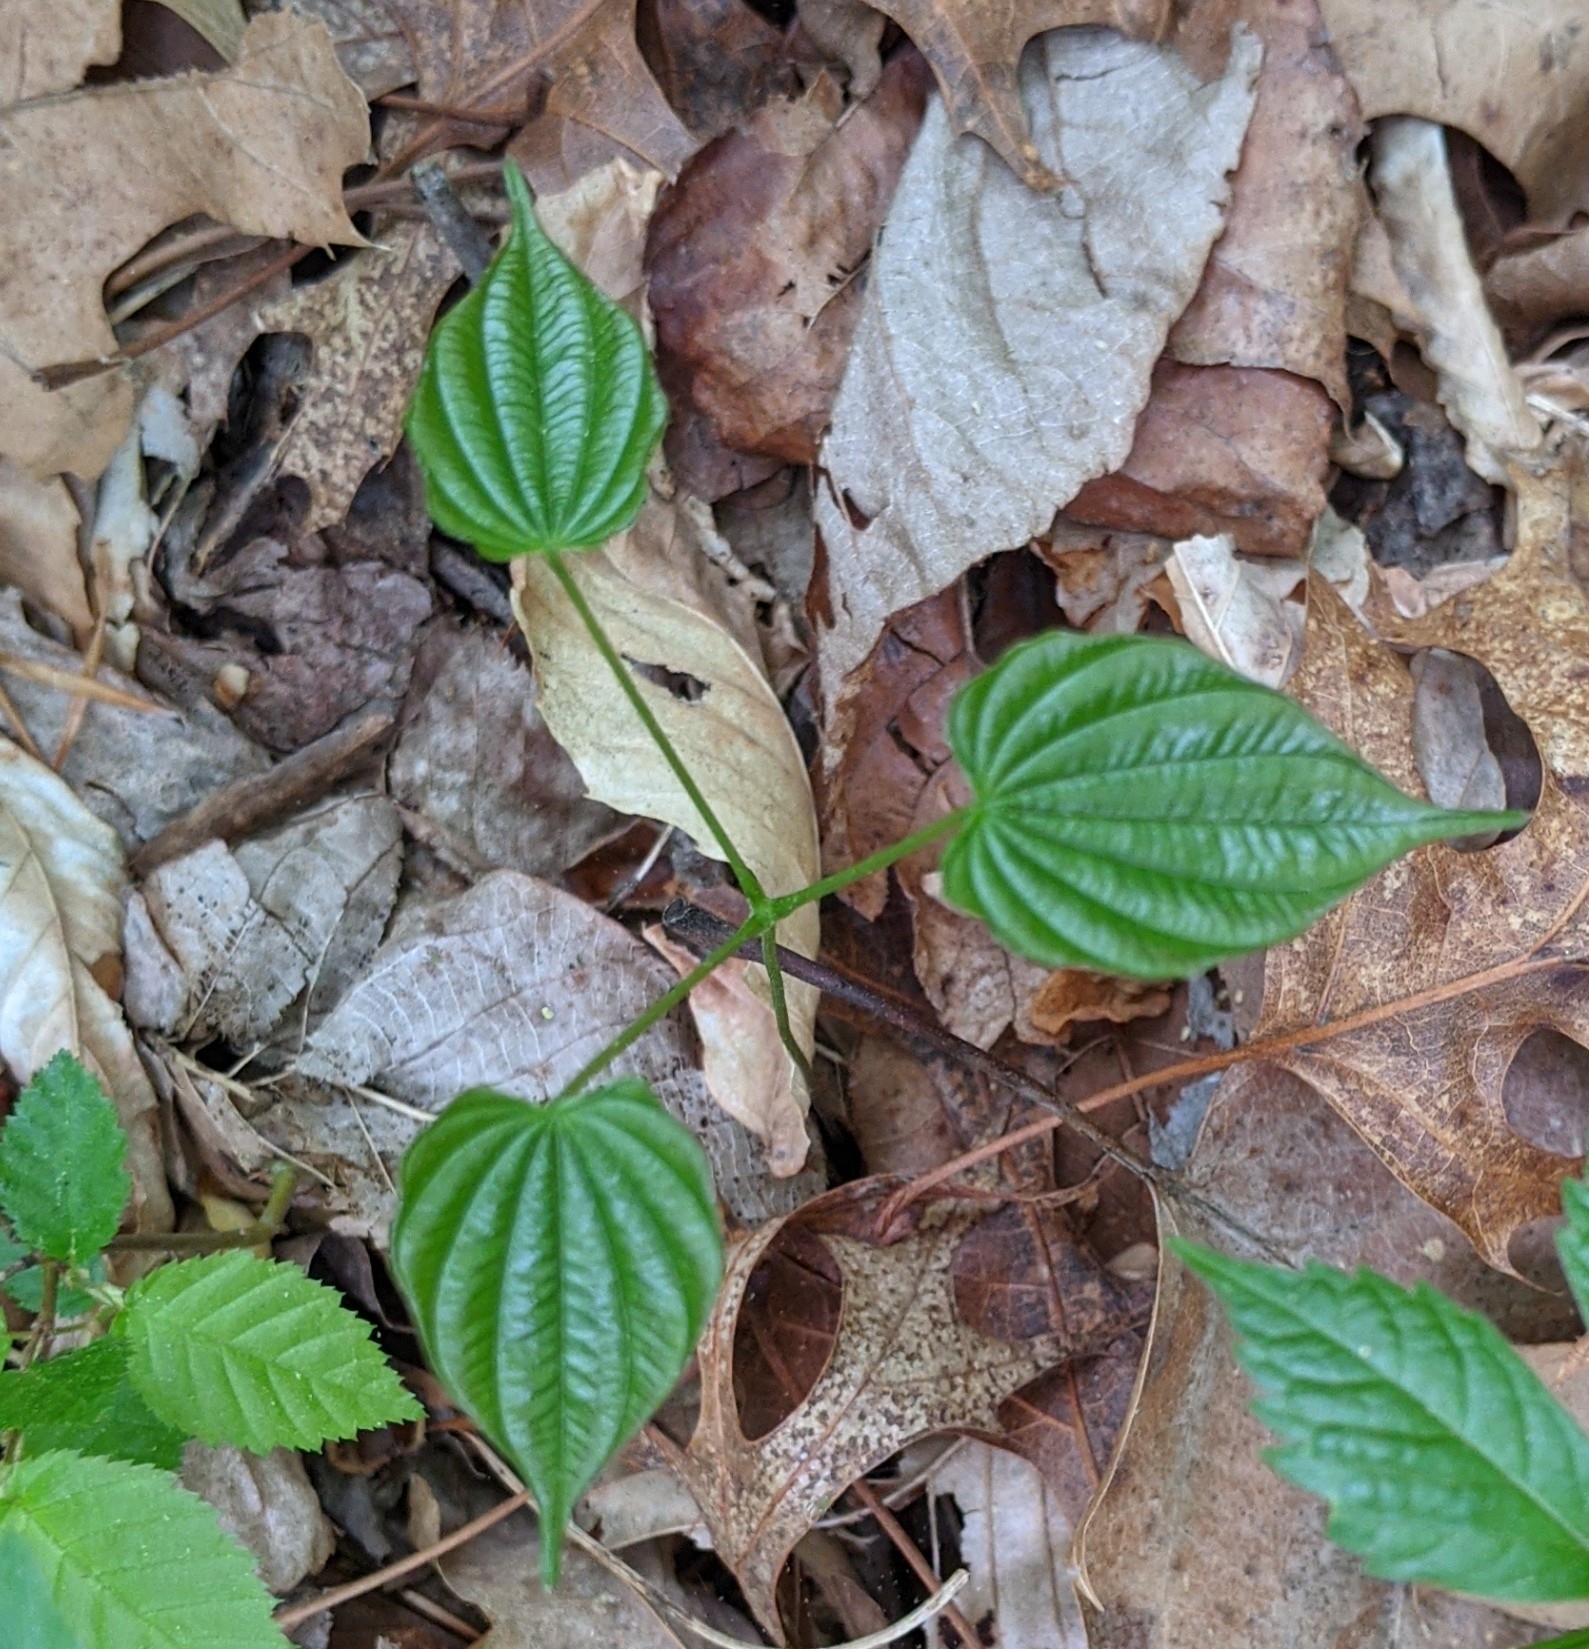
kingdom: Plantae
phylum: Tracheophyta
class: Liliopsida
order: Dioscoreales
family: Dioscoreaceae
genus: Dioscorea
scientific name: Dioscorea villosa
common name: Wild yam
